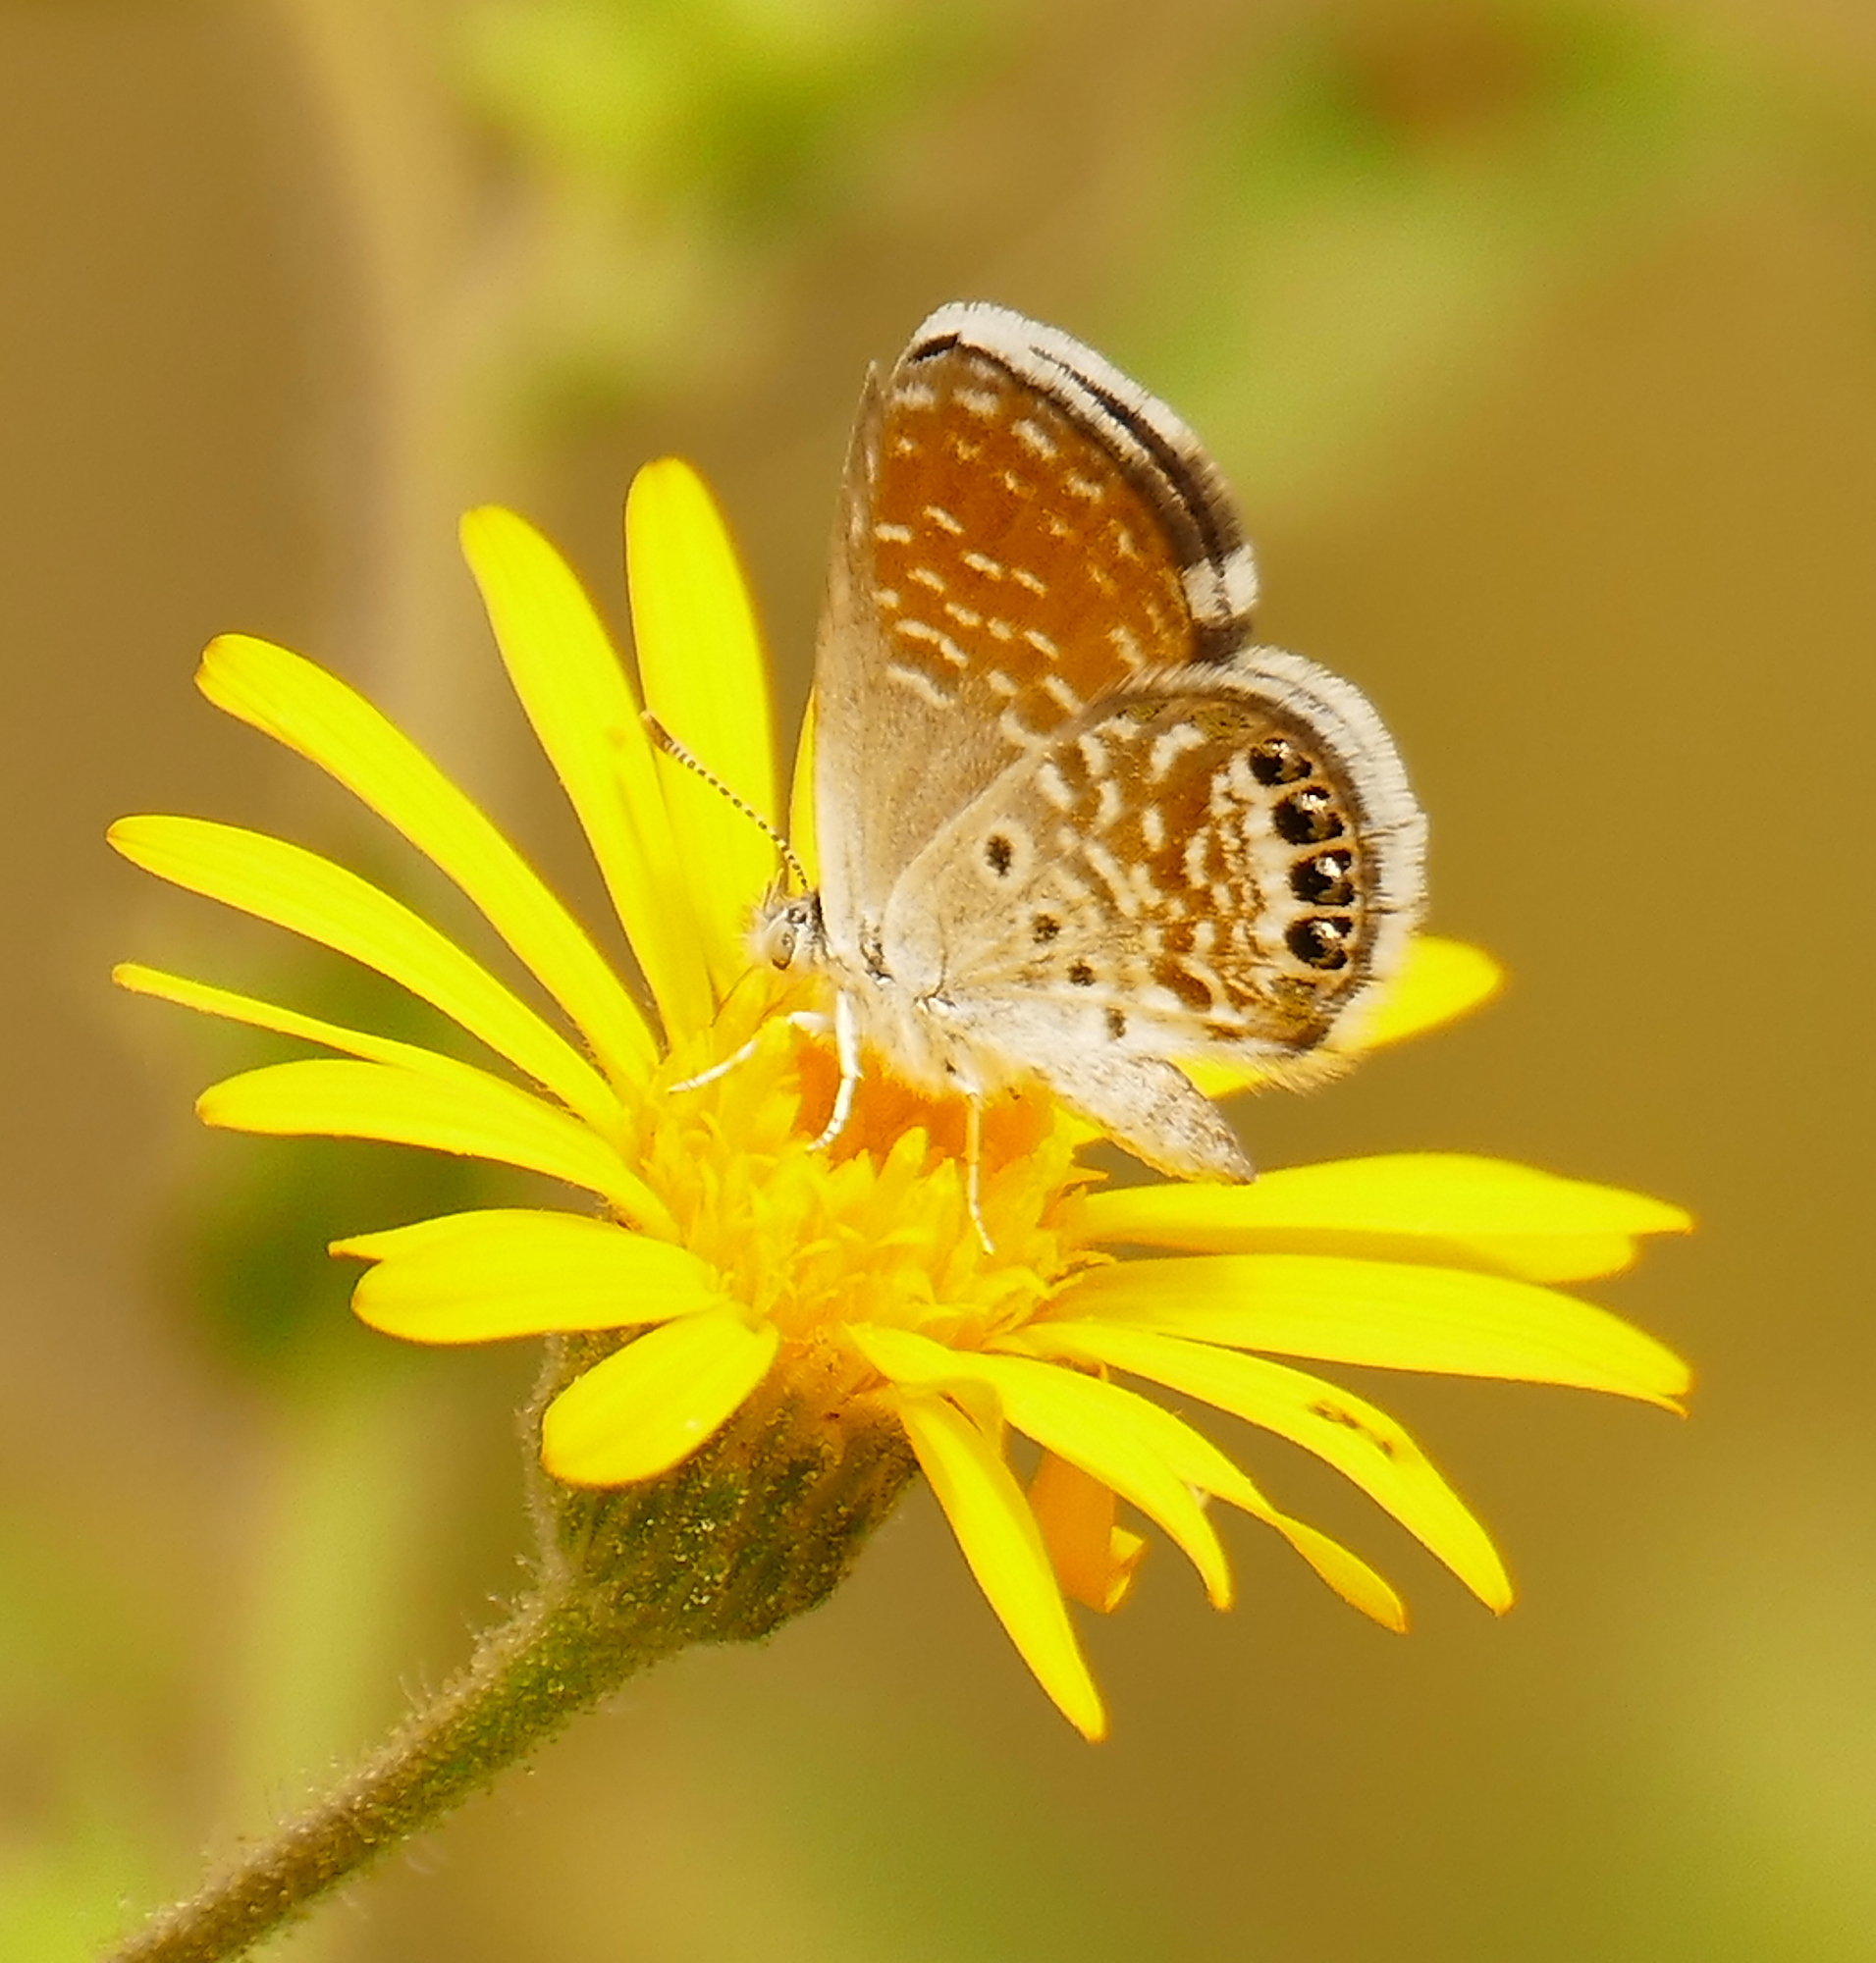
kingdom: Animalia
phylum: Arthropoda
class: Insecta
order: Lepidoptera
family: Lycaenidae
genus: Brephidium
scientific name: Brephidium exilis
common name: Pygmy blue
